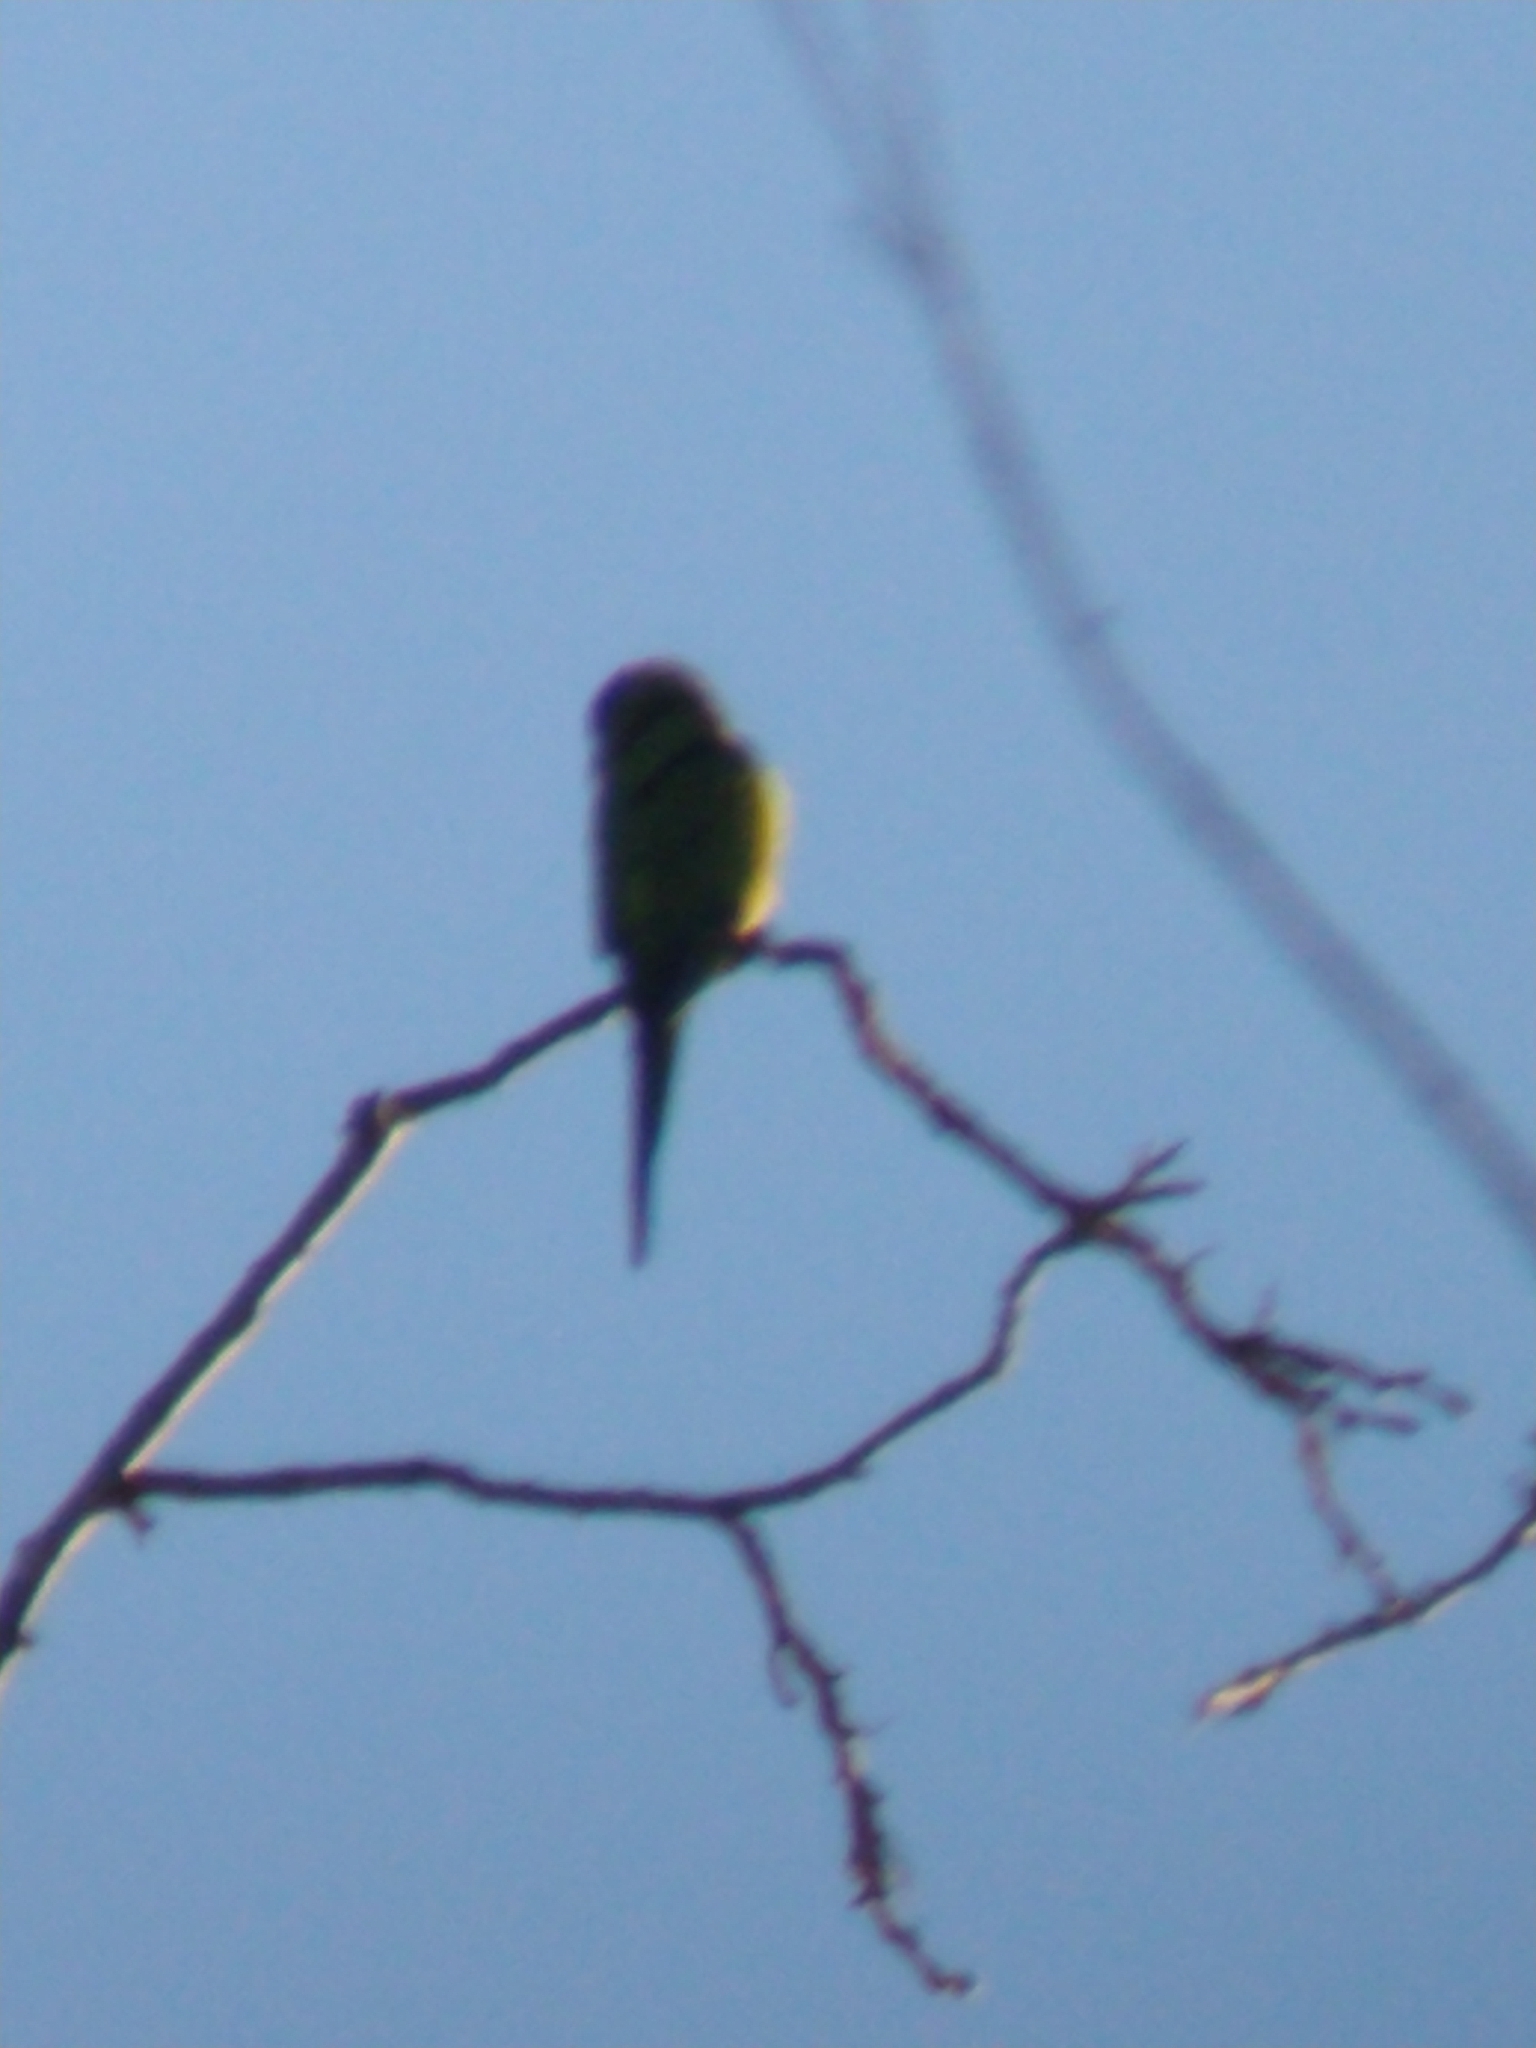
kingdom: Animalia
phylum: Chordata
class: Aves
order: Psittaciformes
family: Psittacidae
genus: Nandayus
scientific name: Nandayus nenday
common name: Nanday parakeet
